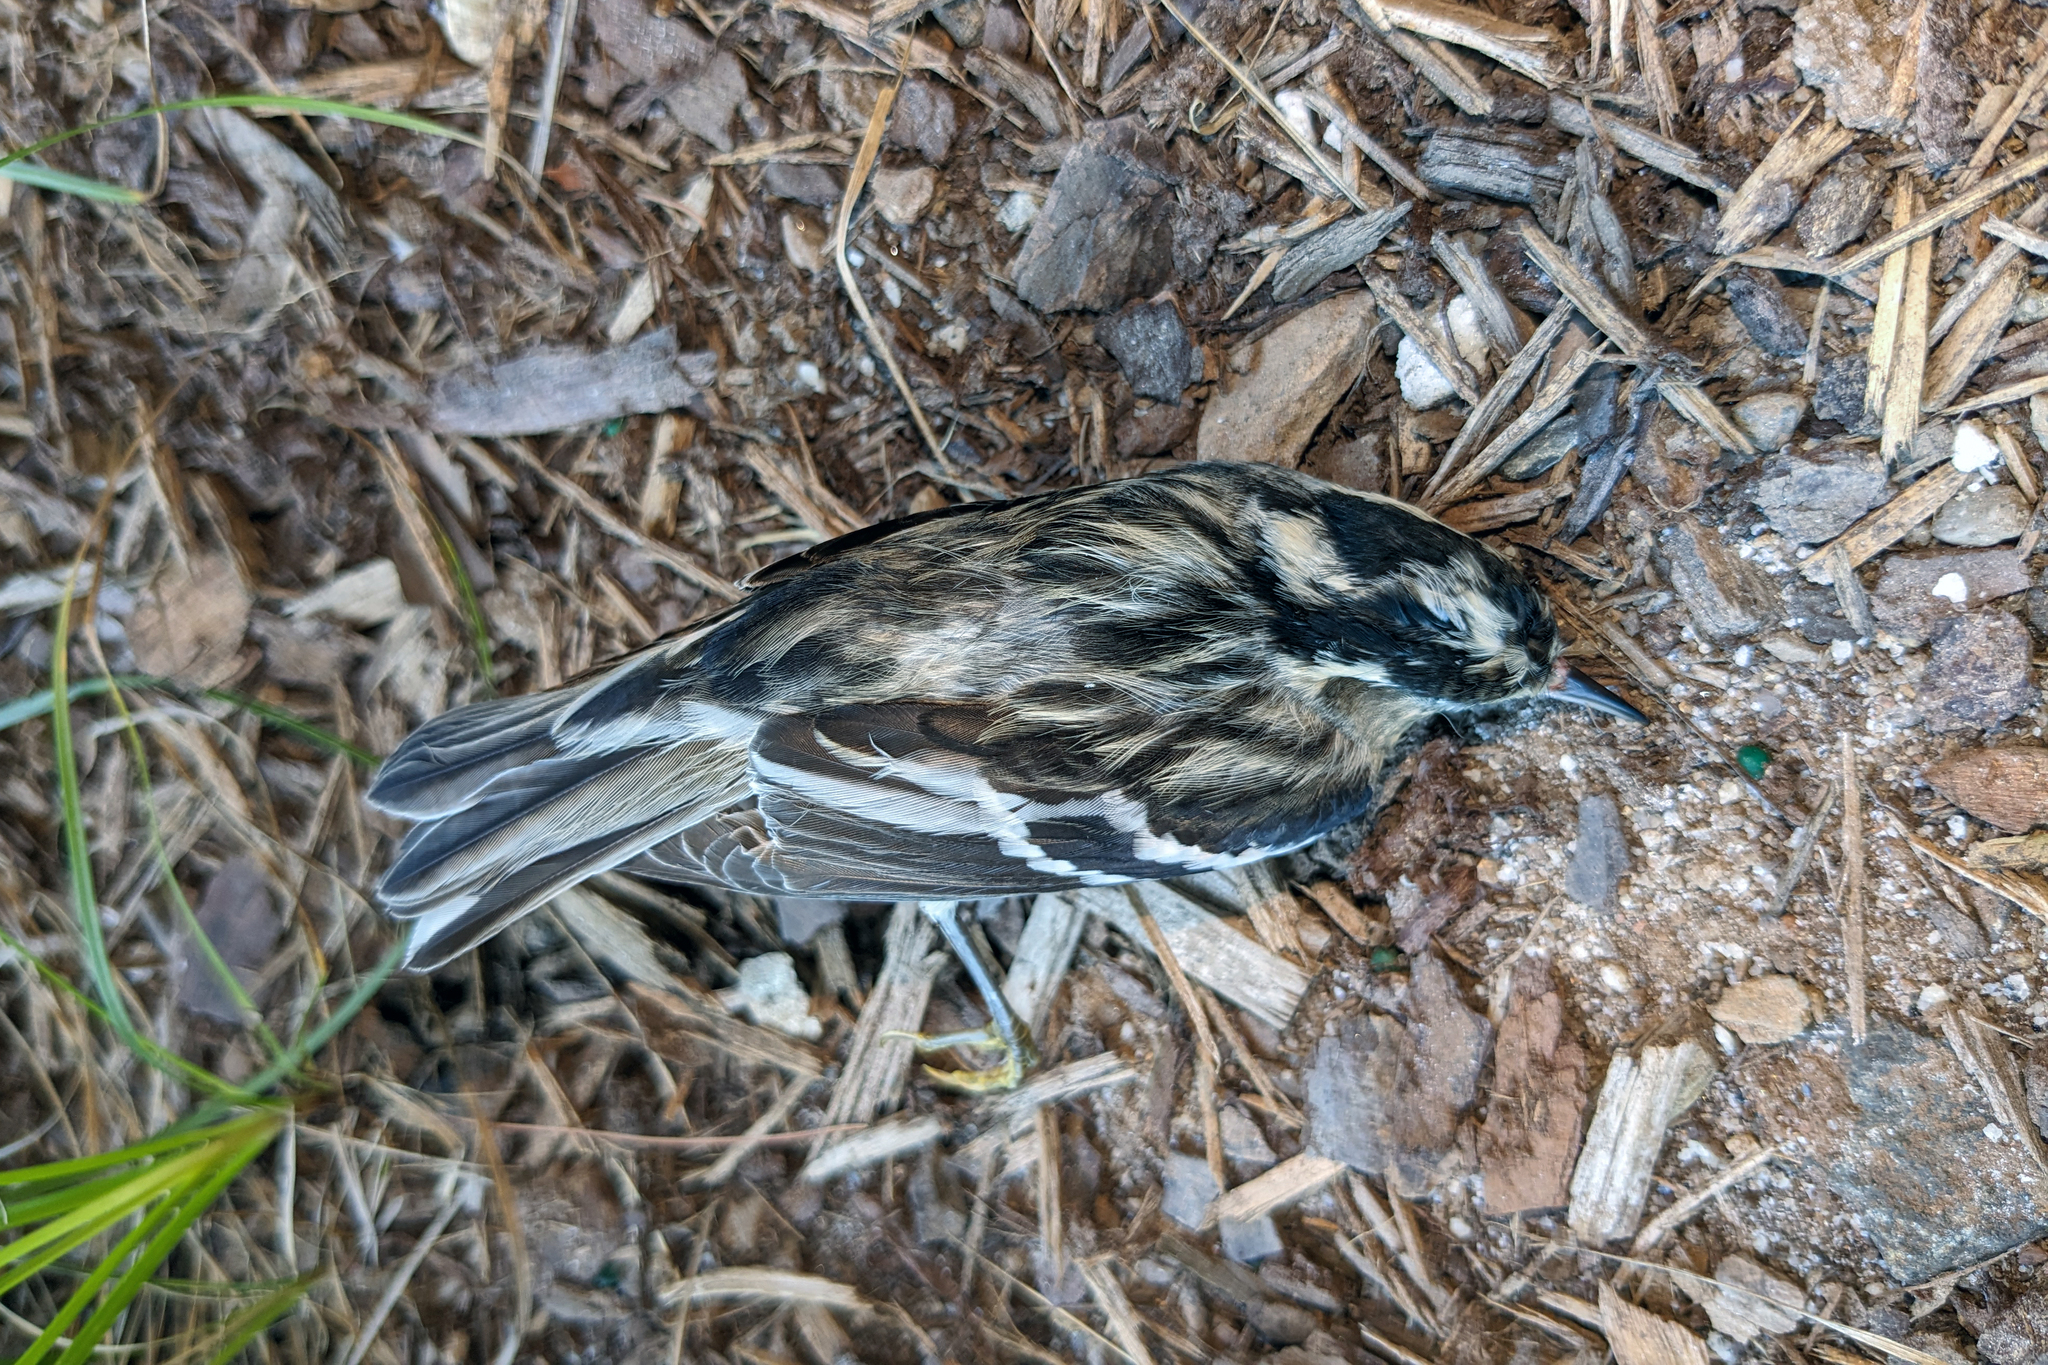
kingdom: Animalia
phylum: Chordata
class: Aves
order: Passeriformes
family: Parulidae
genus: Mniotilta
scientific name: Mniotilta varia
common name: Black-and-white warbler
